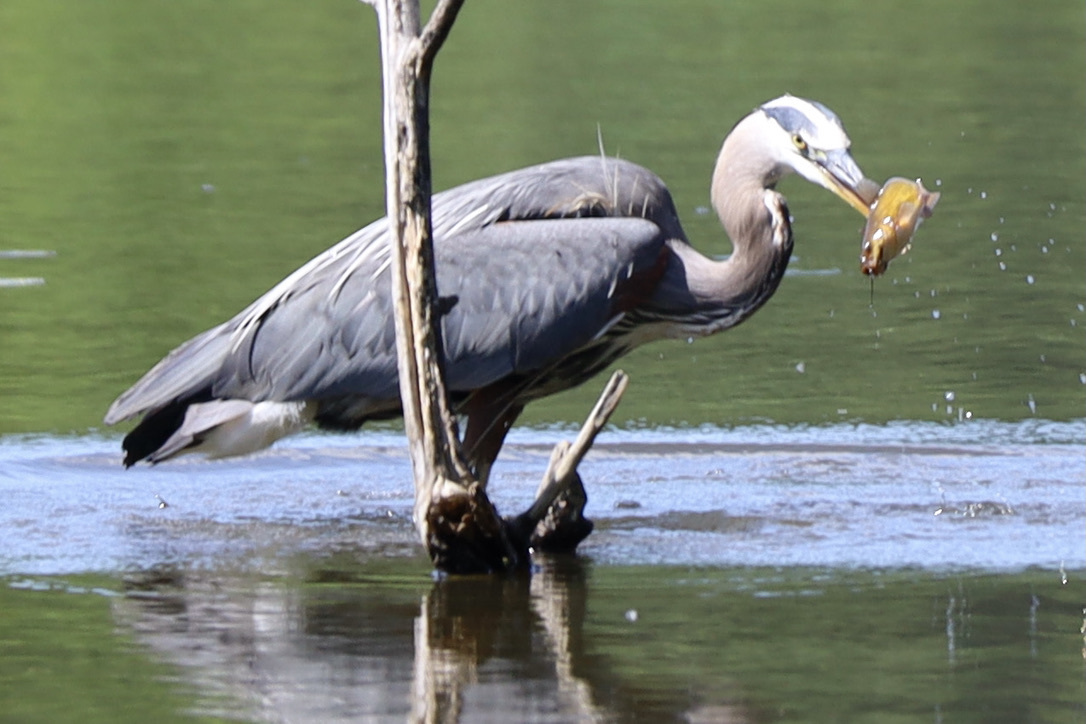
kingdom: Animalia
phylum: Chordata
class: Aves
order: Pelecaniformes
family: Ardeidae
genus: Ardea
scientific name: Ardea herodias
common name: Great blue heron
